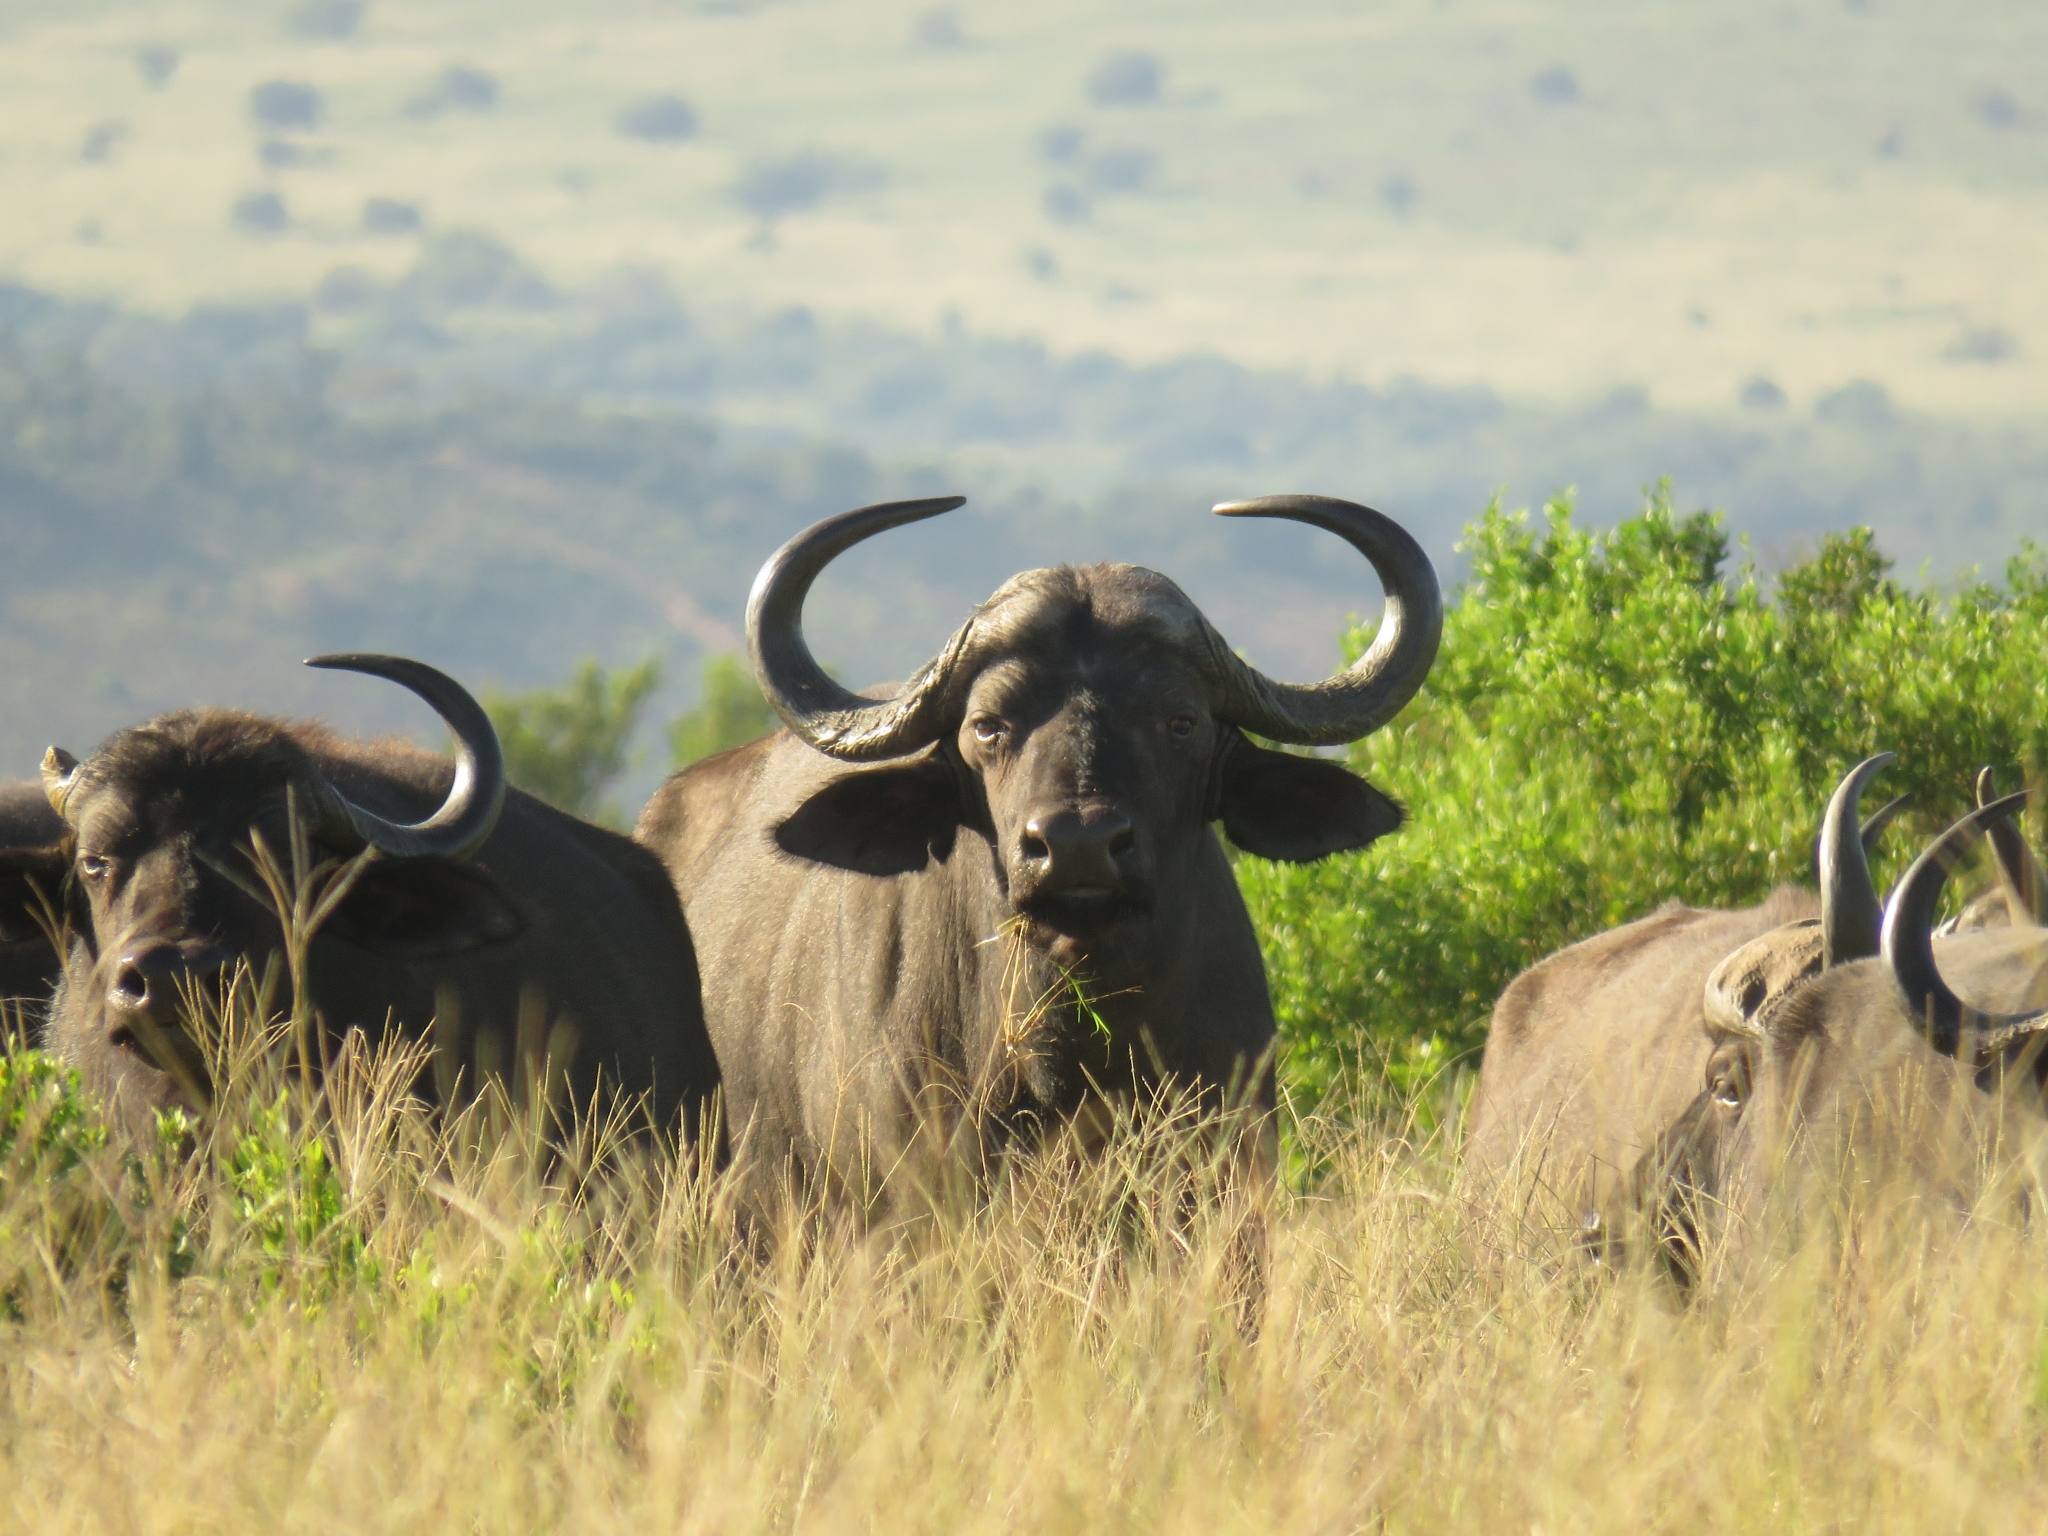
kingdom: Animalia
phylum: Chordata
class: Mammalia
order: Artiodactyla
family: Bovidae
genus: Syncerus
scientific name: Syncerus caffer
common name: African buffalo
